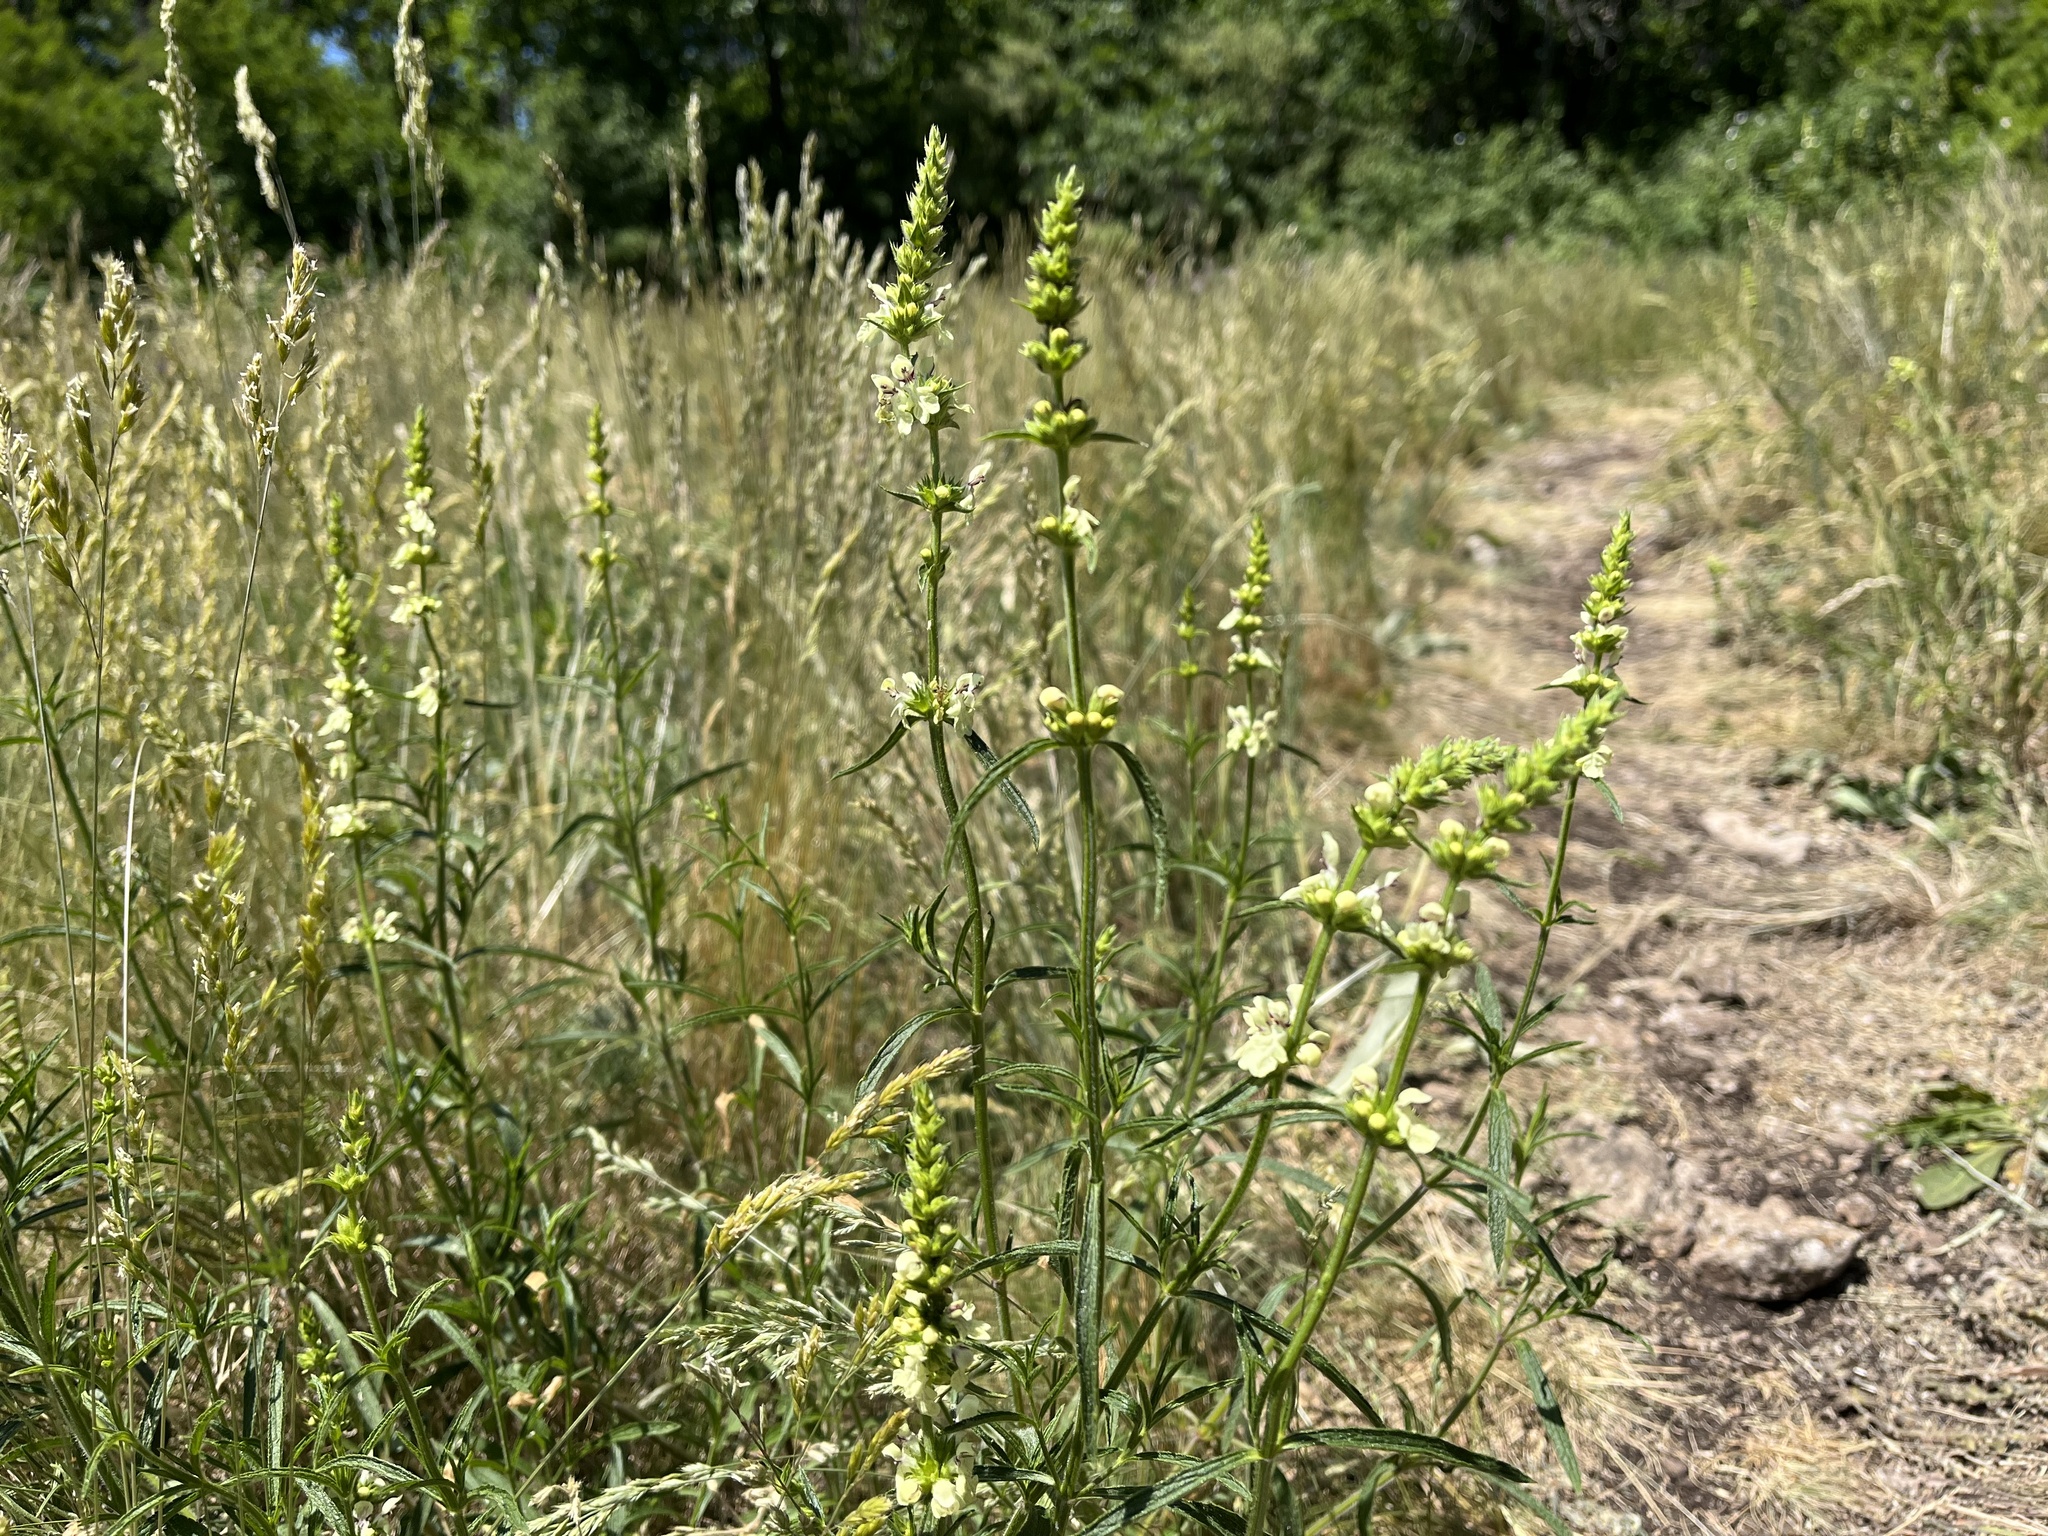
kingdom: Plantae
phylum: Tracheophyta
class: Magnoliopsida
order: Lamiales
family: Lamiaceae
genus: Stachys
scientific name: Stachys recta
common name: Perennial yellow-woundwort
